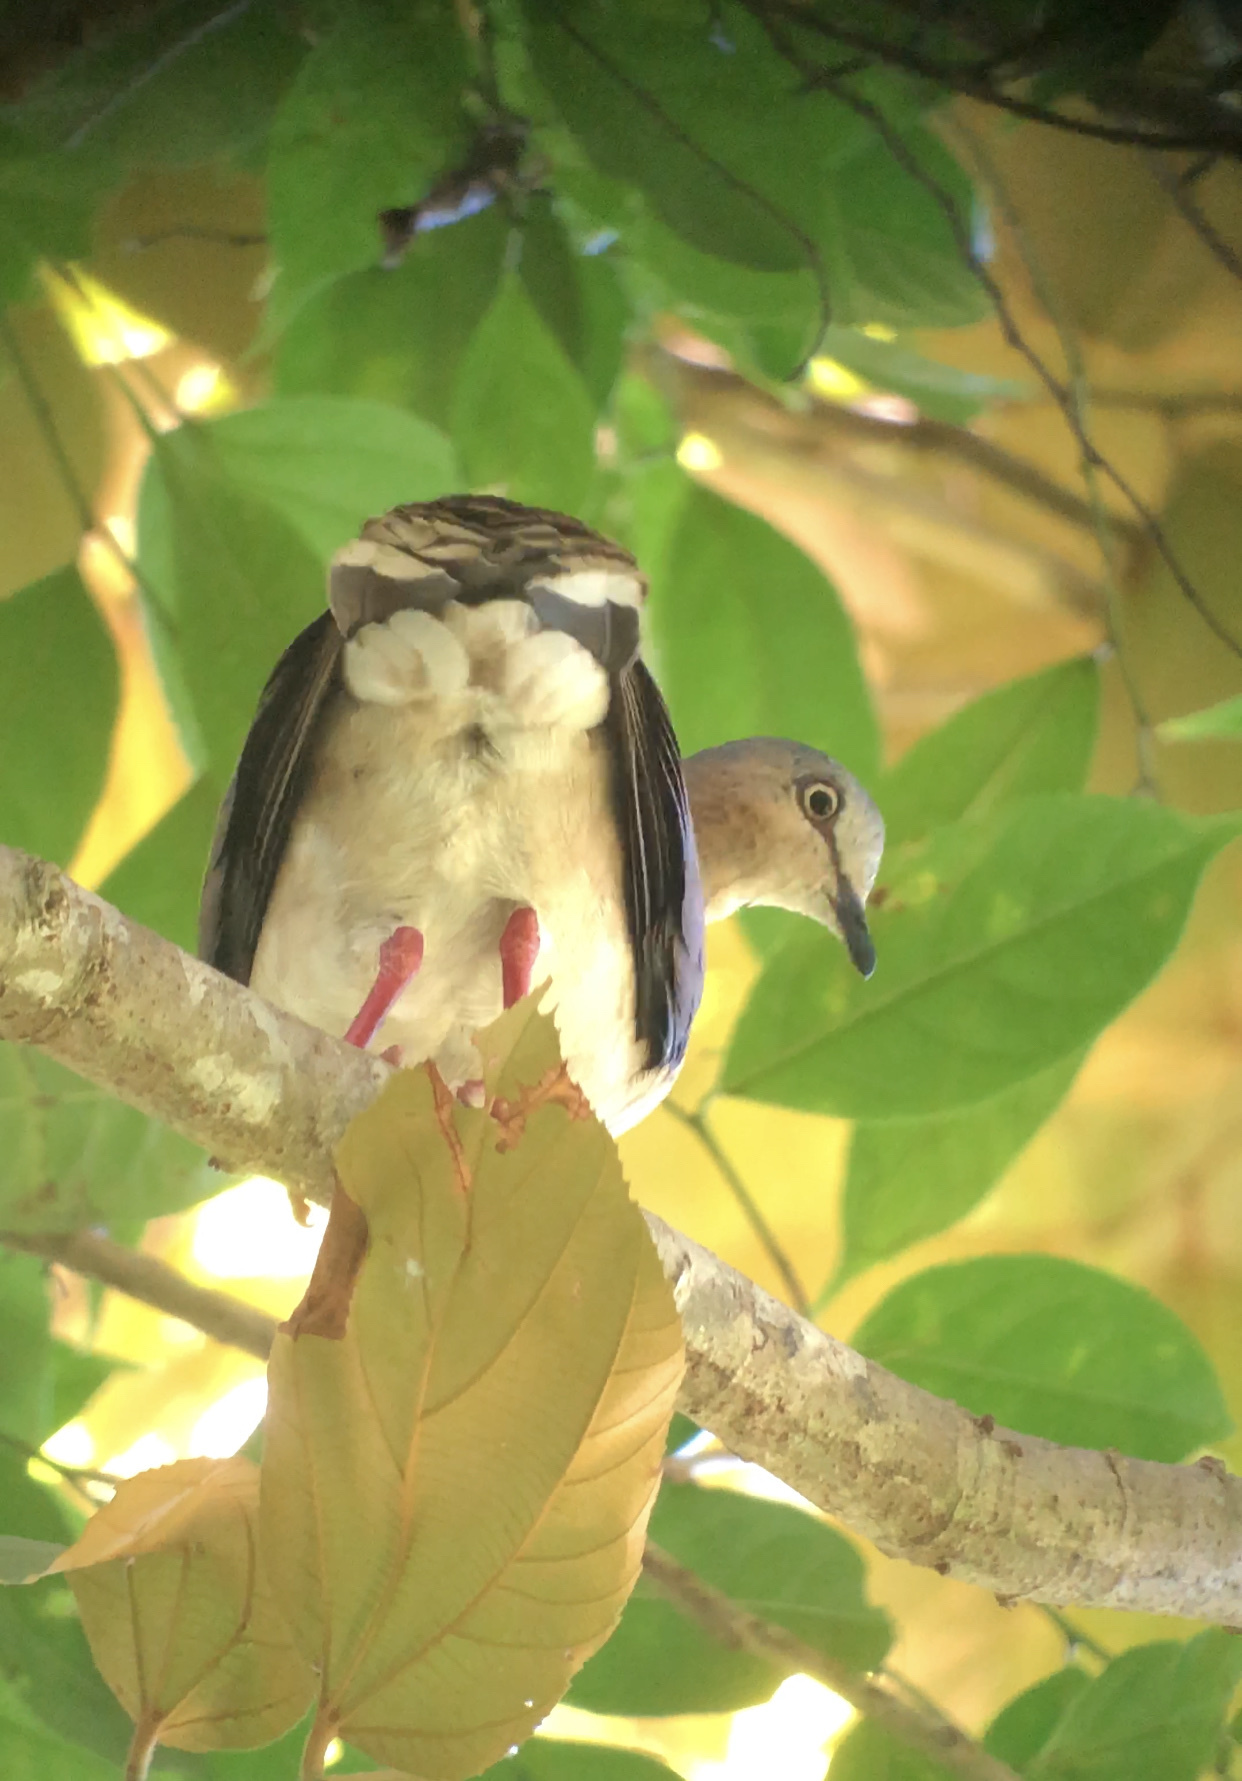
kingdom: Animalia
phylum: Chordata
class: Aves
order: Columbiformes
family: Columbidae
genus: Leptotila
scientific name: Leptotila plumbeiceps
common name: Grey-headed dove
